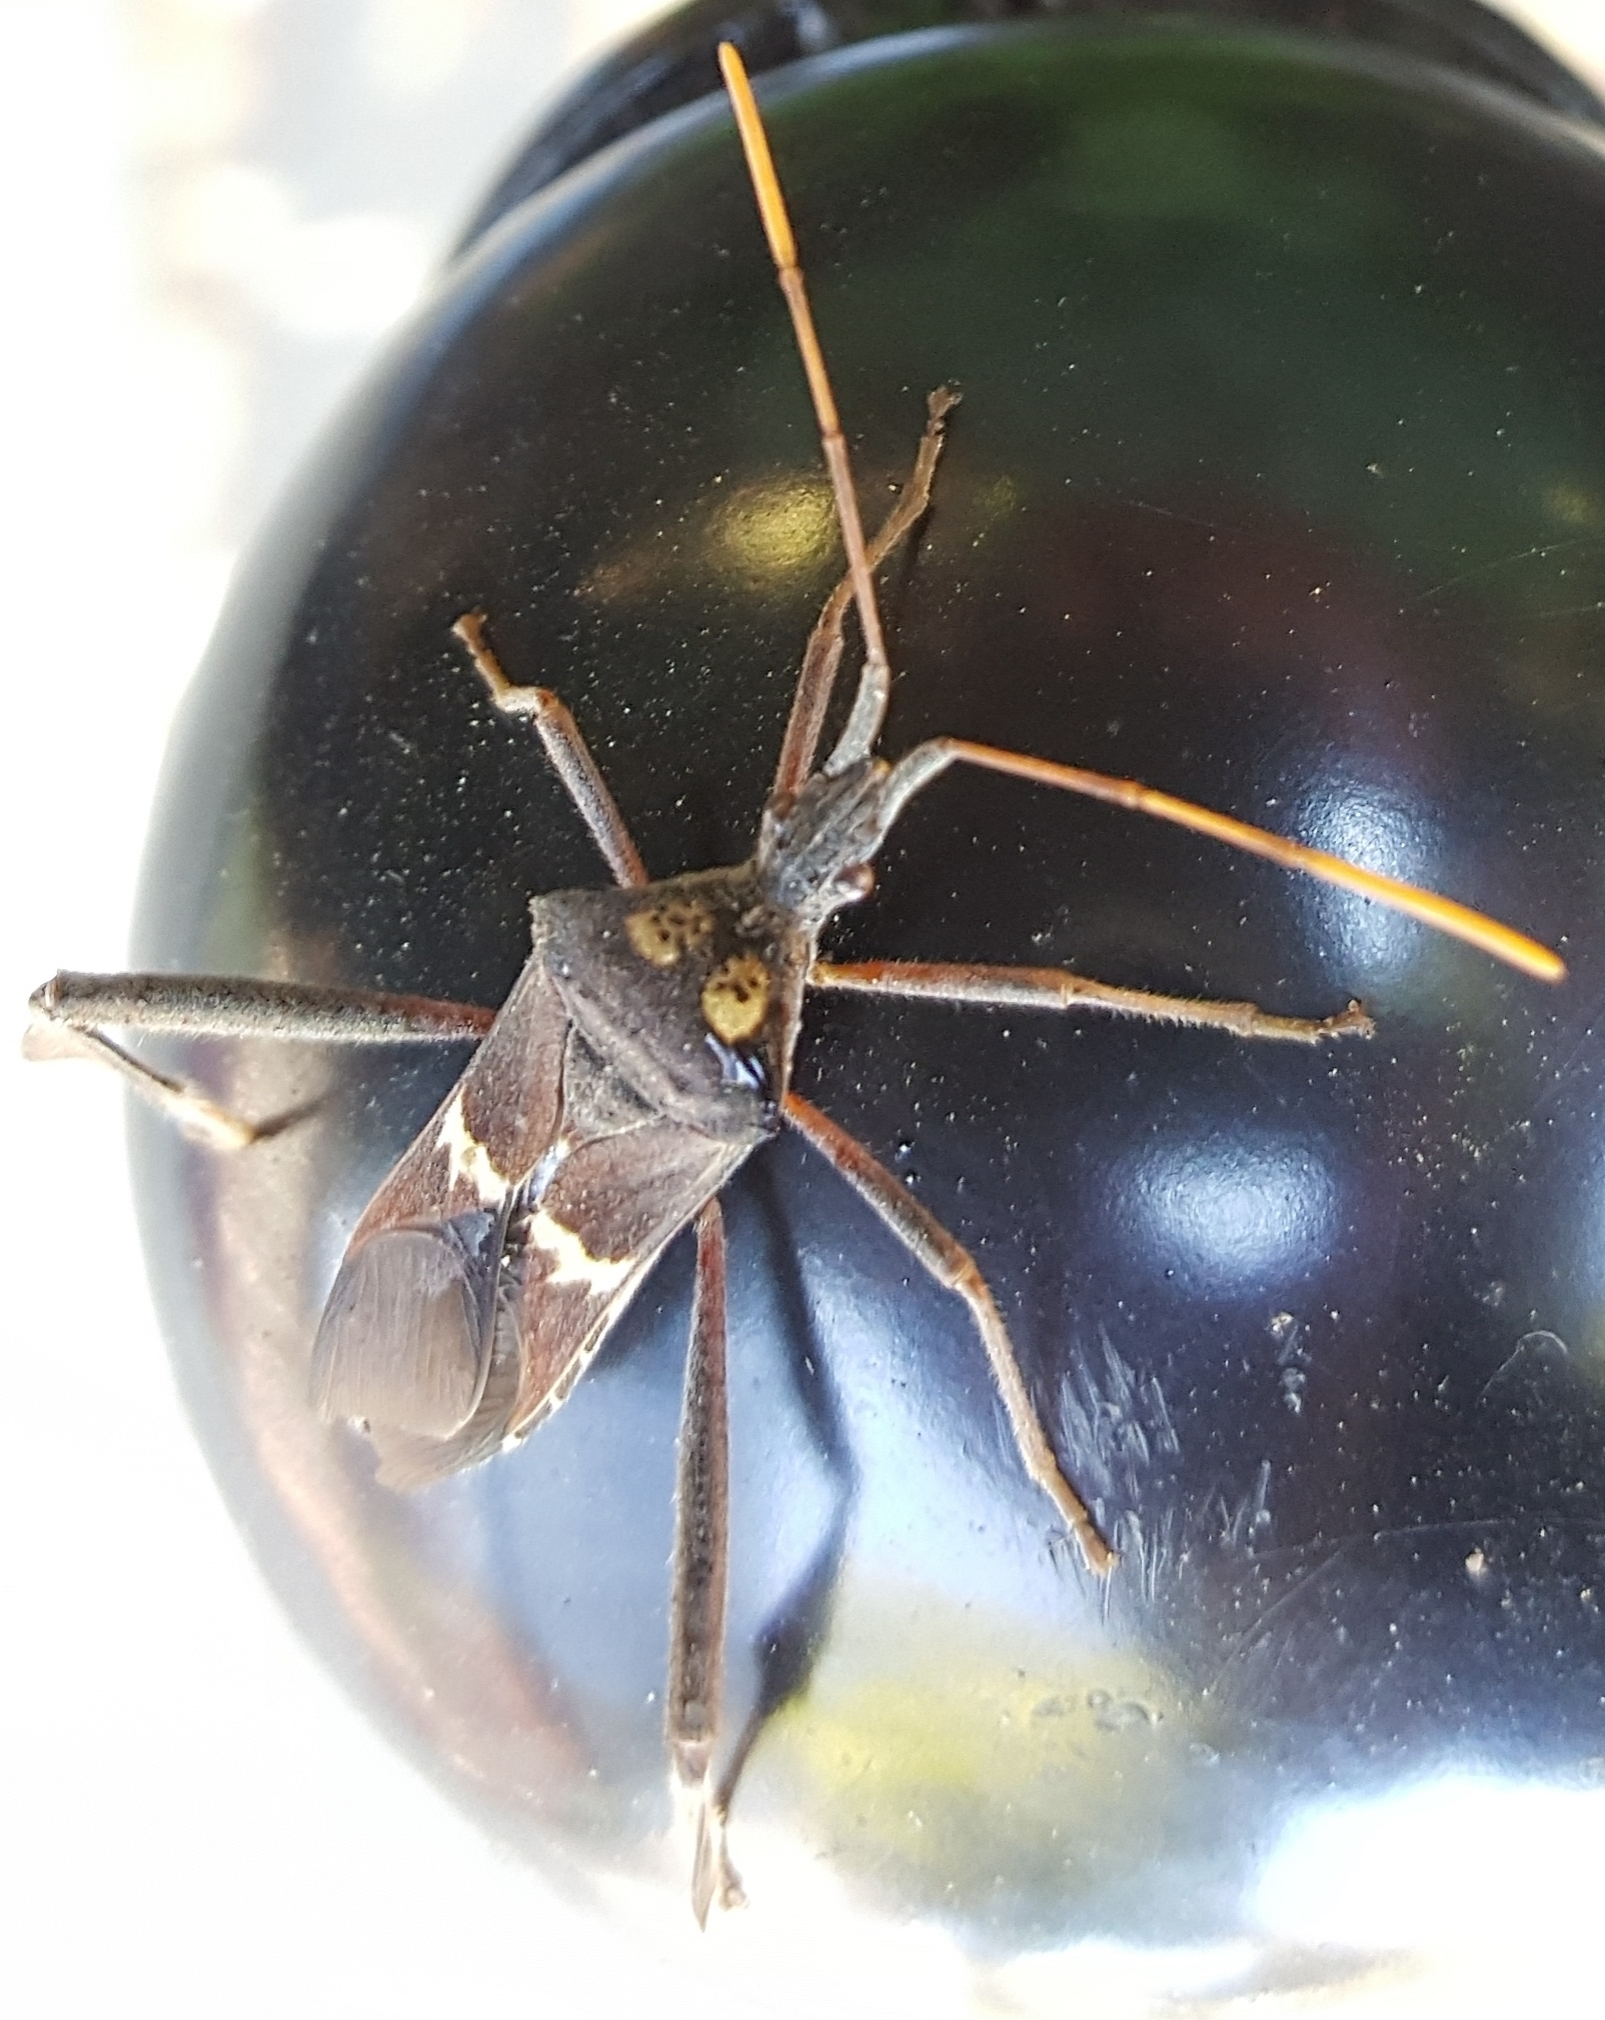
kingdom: Animalia
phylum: Arthropoda
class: Insecta
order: Hemiptera
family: Coreidae
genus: Leptoglossus
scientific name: Leptoglossus zonatus
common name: Large-legged bug
